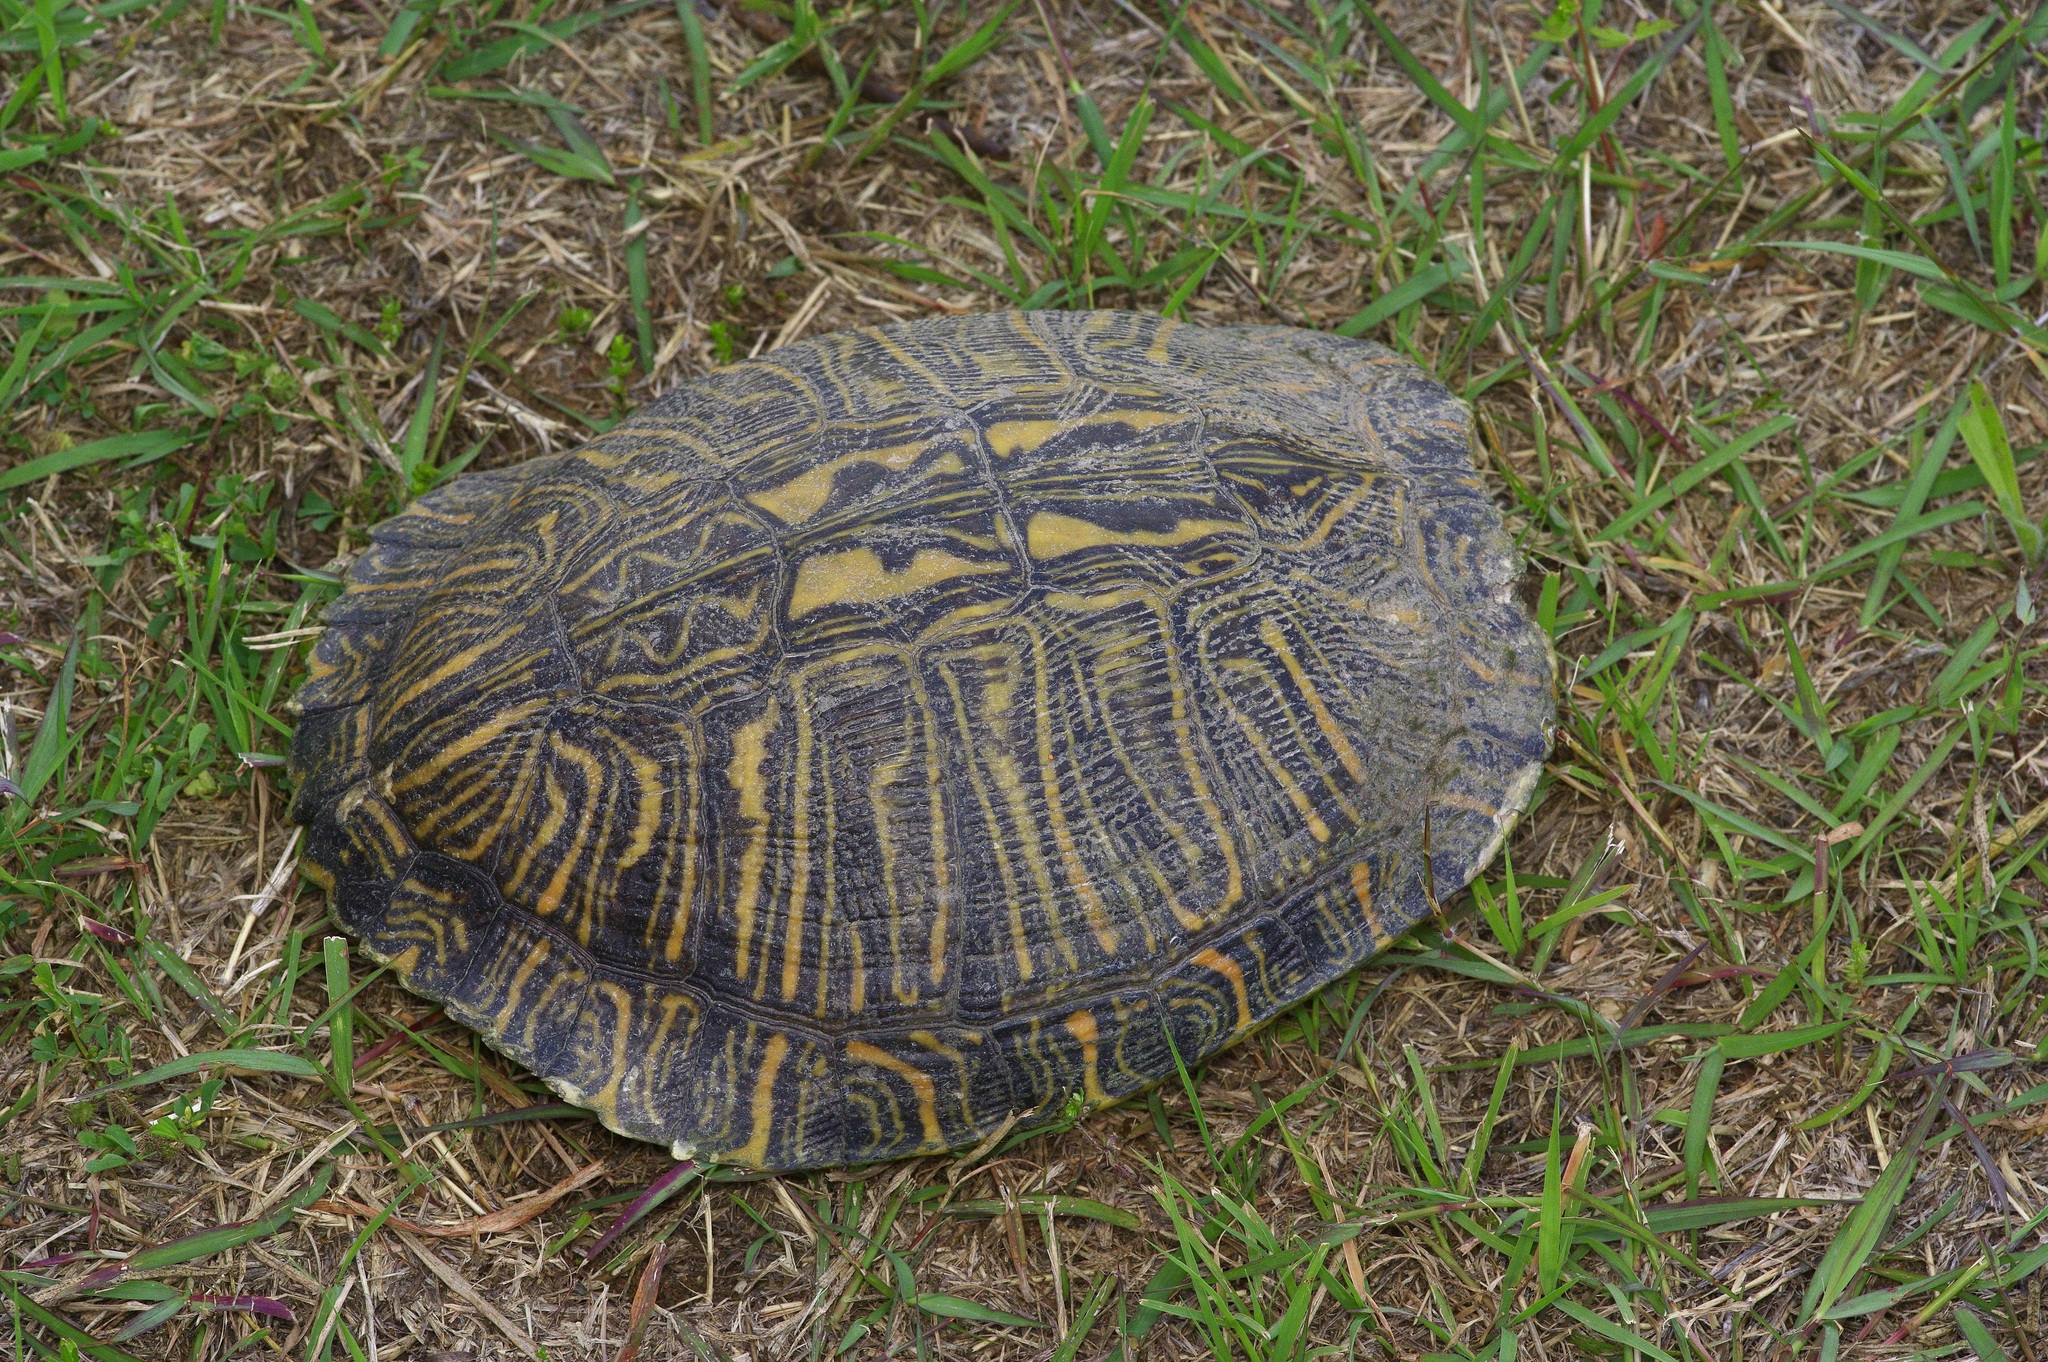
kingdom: Animalia
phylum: Chordata
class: Testudines
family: Emydidae
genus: Trachemys
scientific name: Trachemys scripta
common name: Slider
